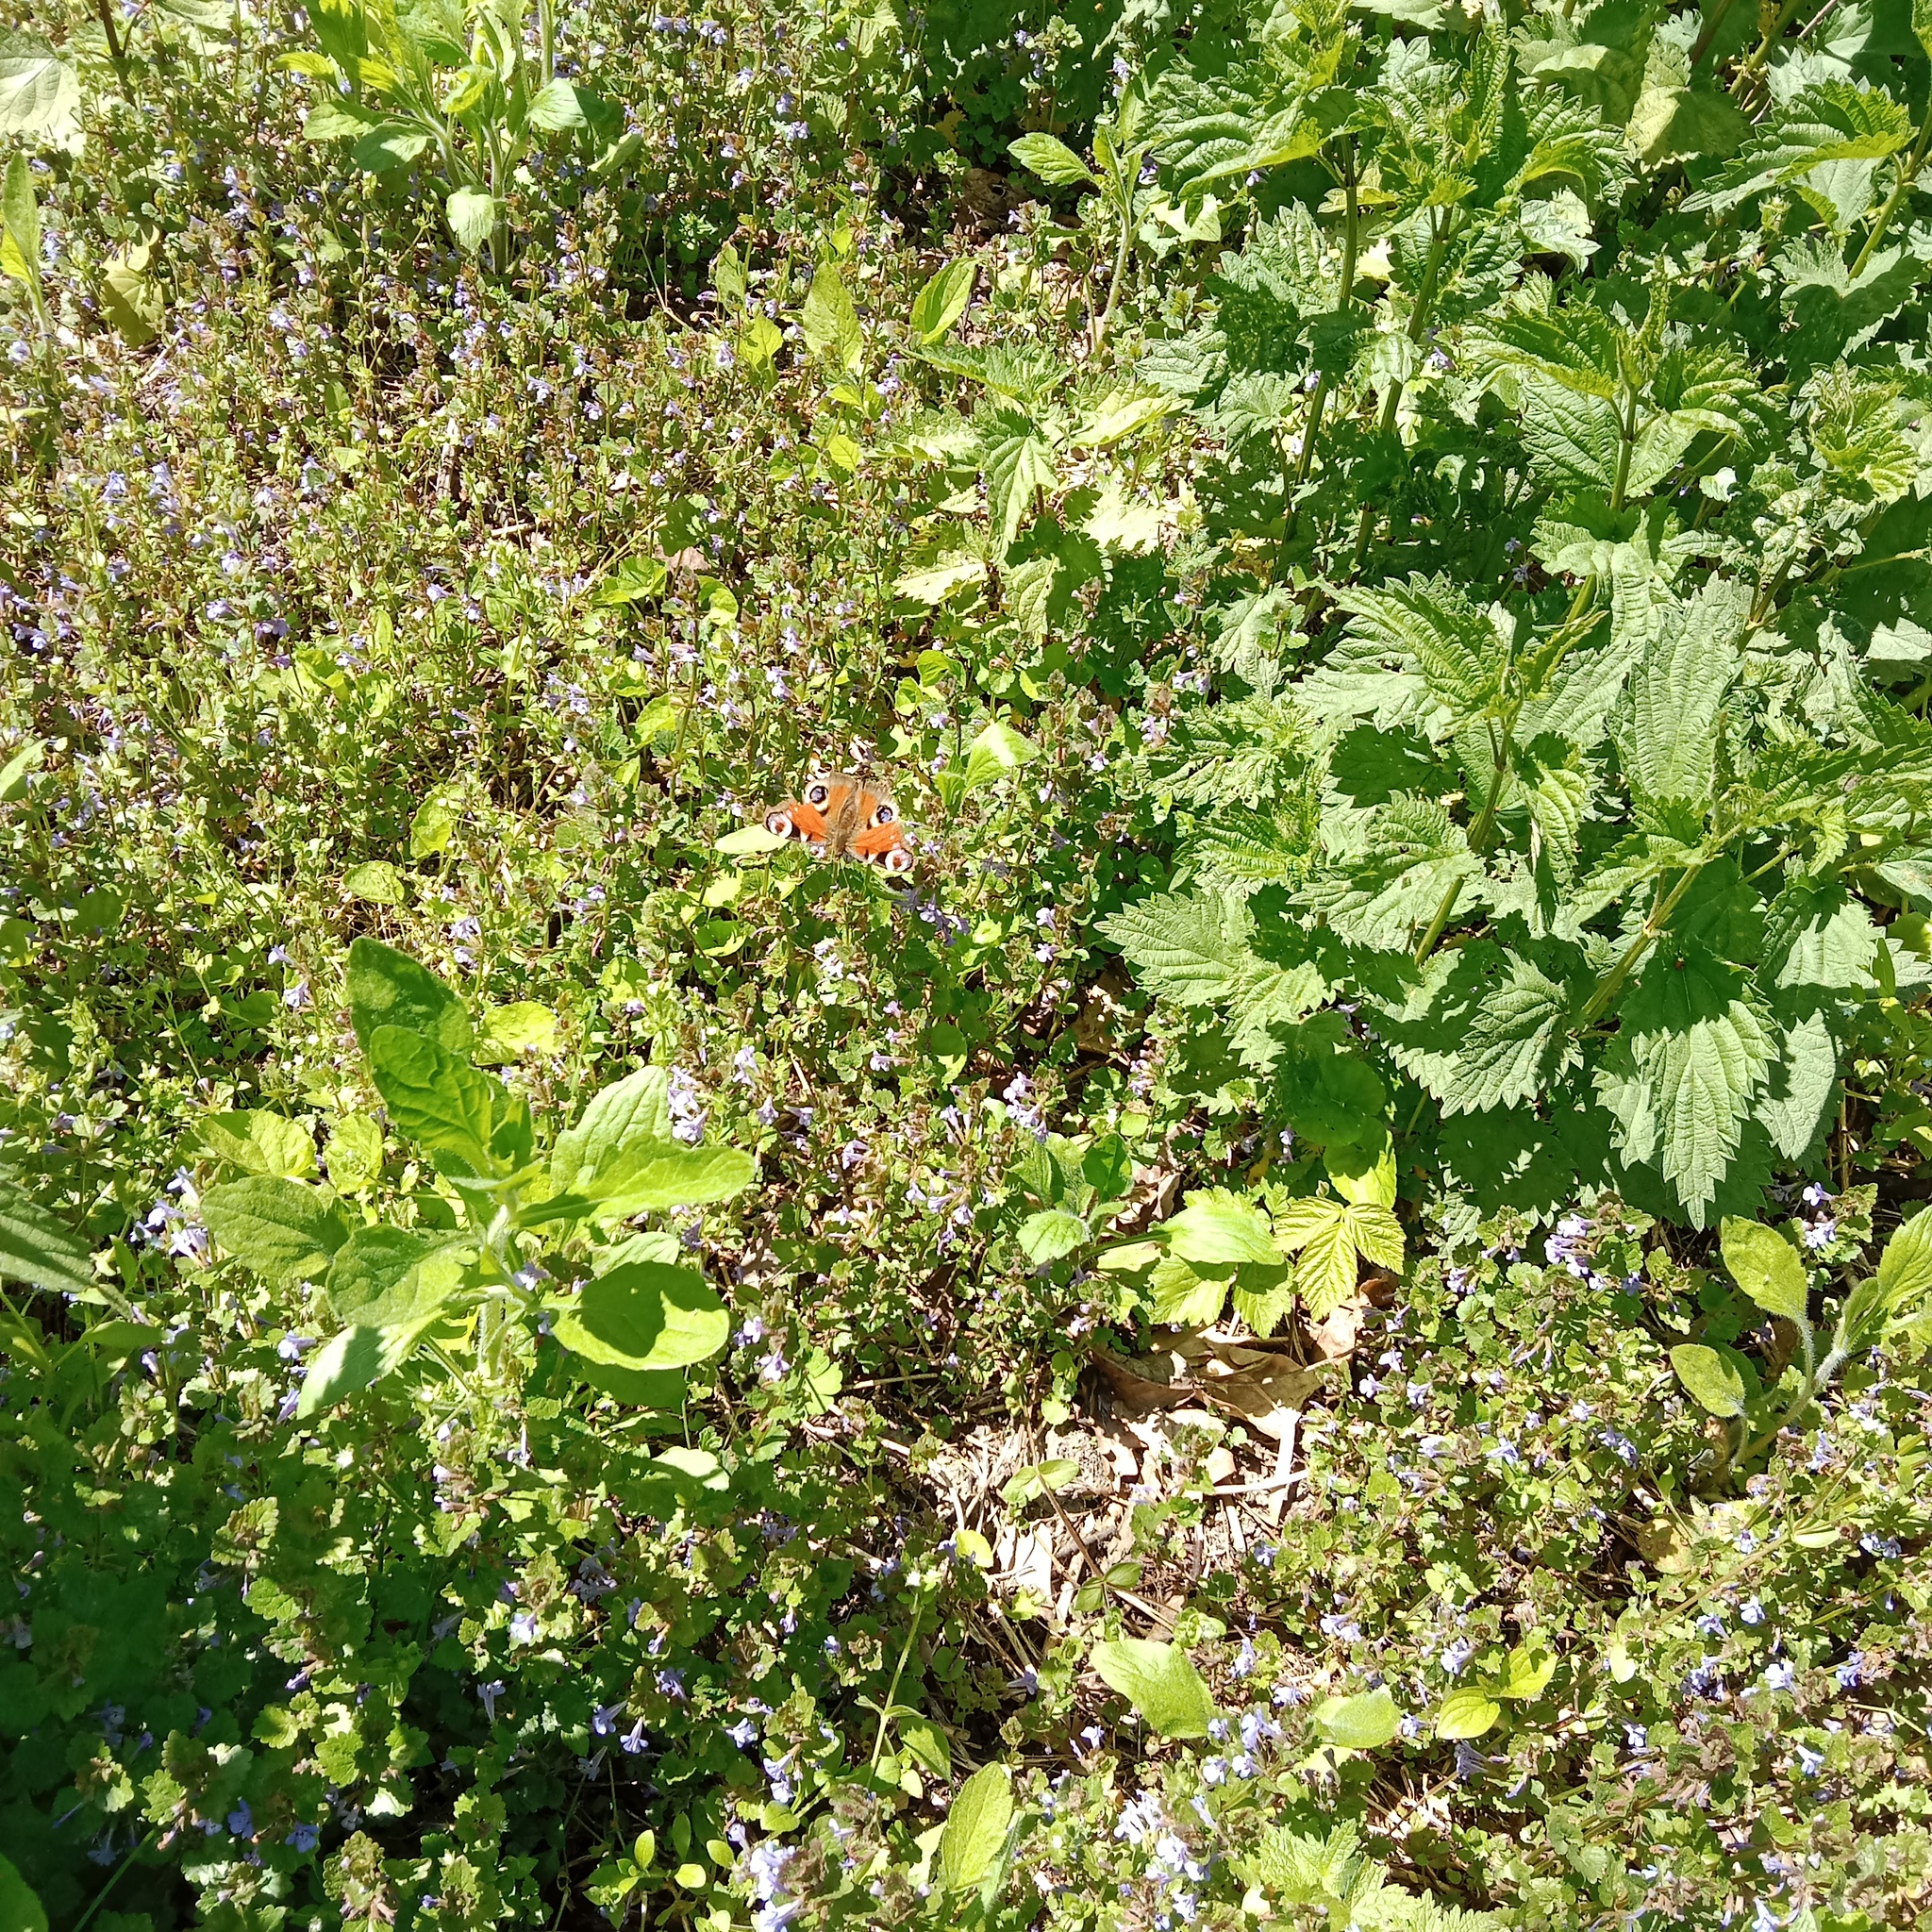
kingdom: Animalia
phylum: Arthropoda
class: Insecta
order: Lepidoptera
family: Nymphalidae
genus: Aglais
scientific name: Aglais io
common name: Peacock
